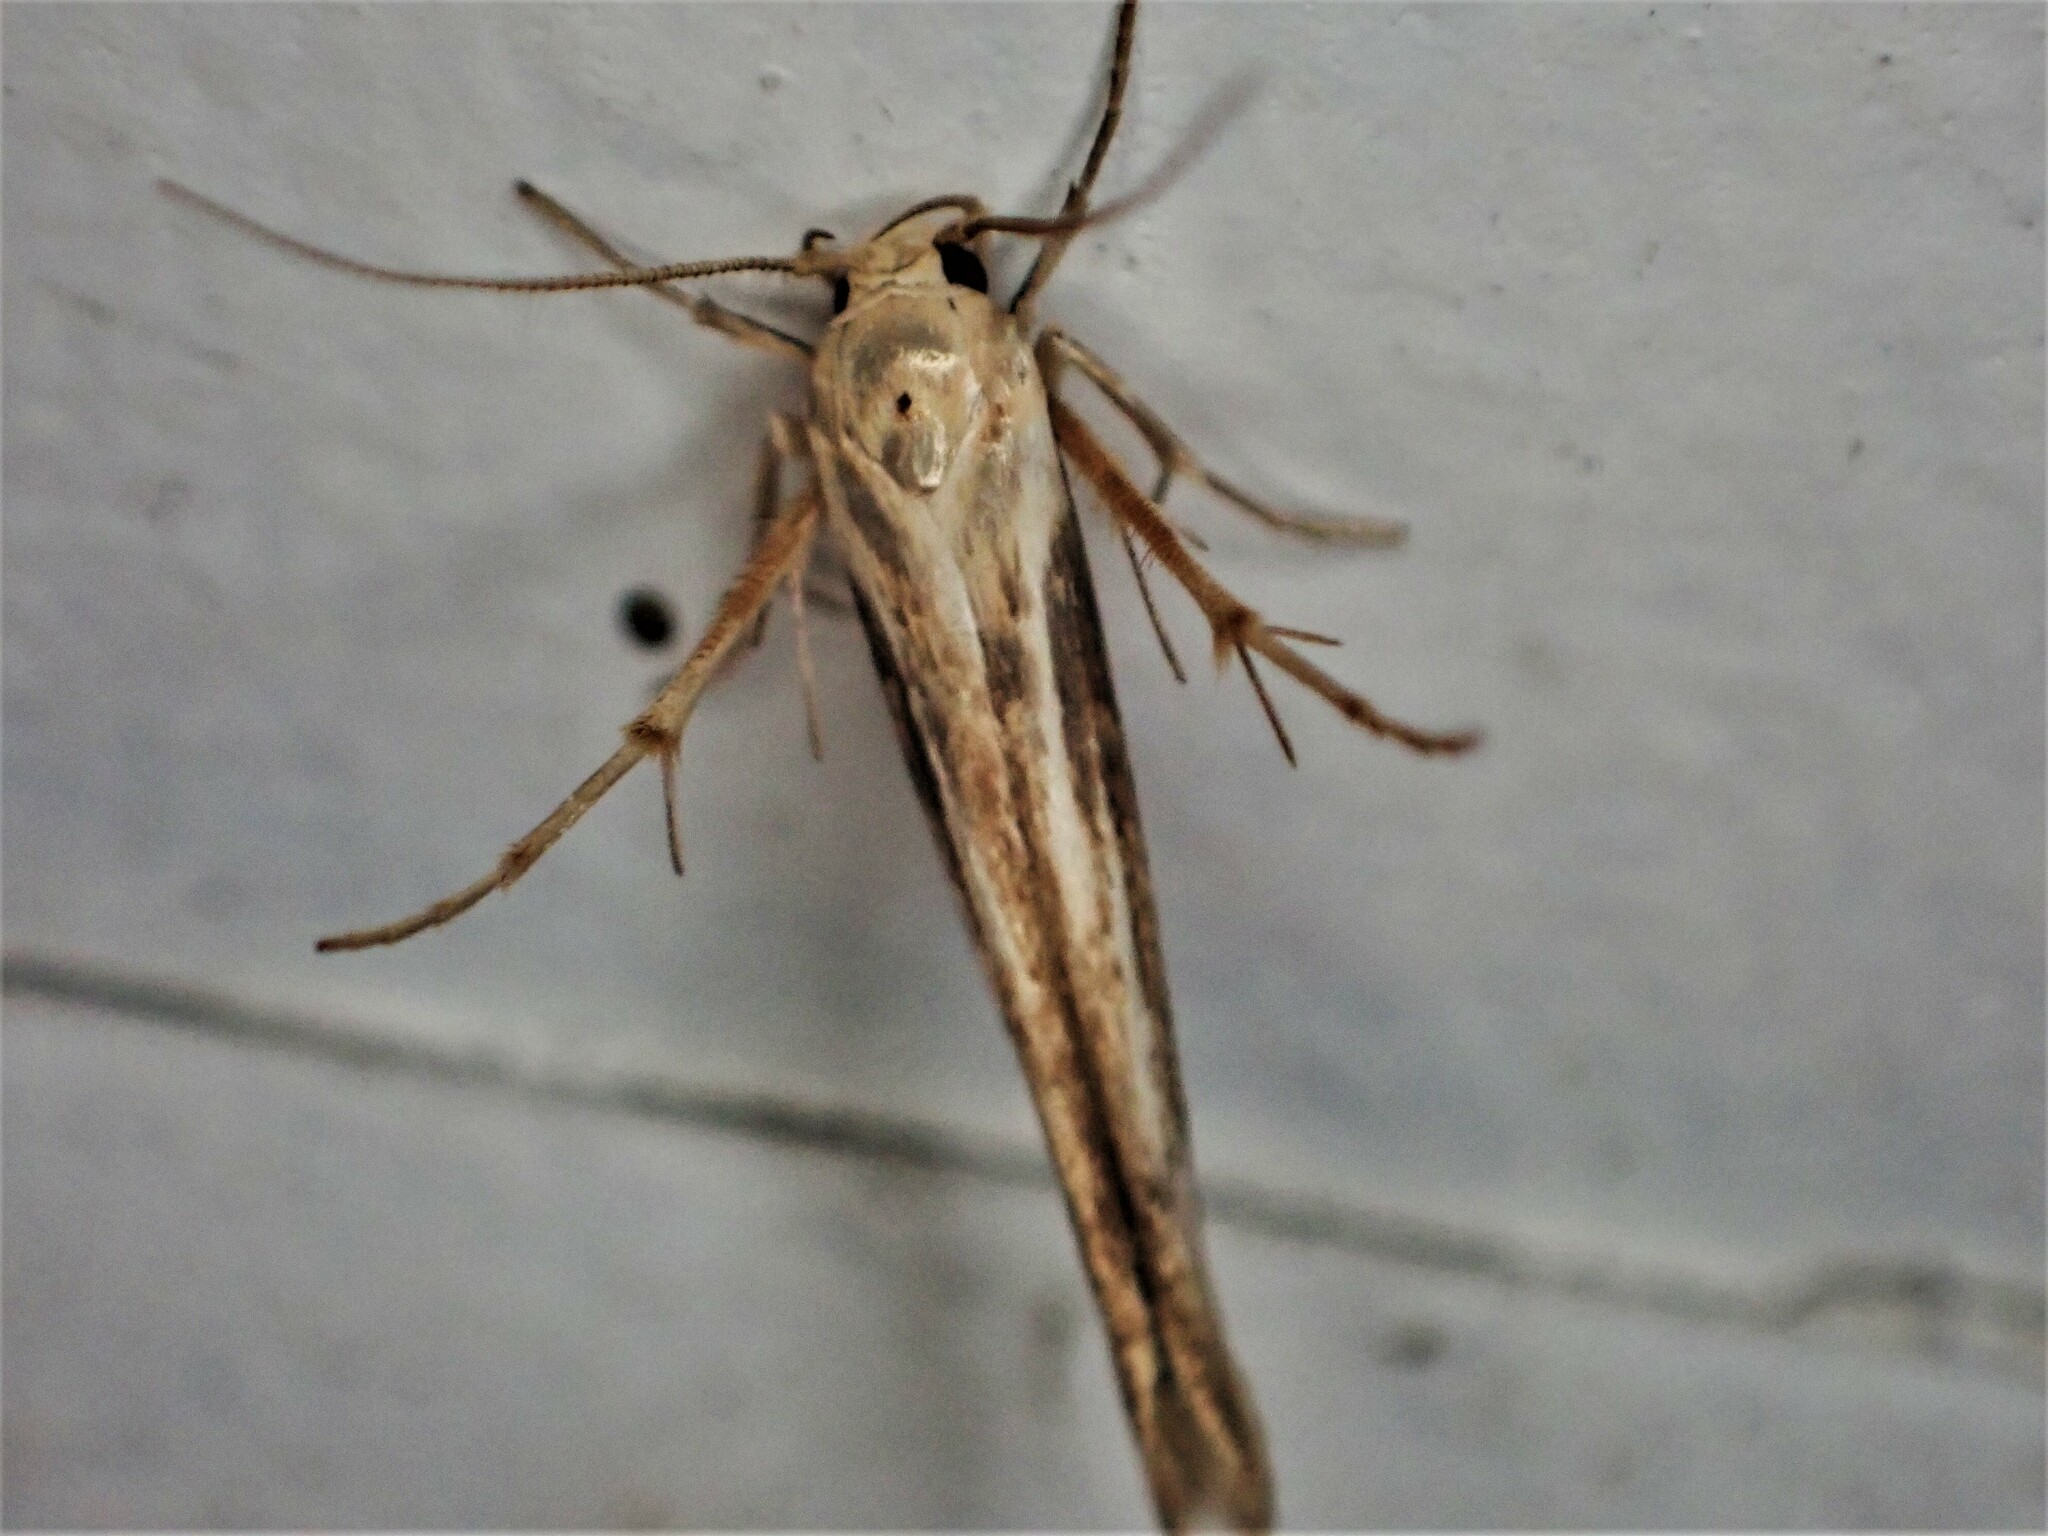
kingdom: Animalia
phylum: Arthropoda
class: Insecta
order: Lepidoptera
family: Stathmopodidae
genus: Stathmopoda
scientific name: Stathmopoda plumbiflua
